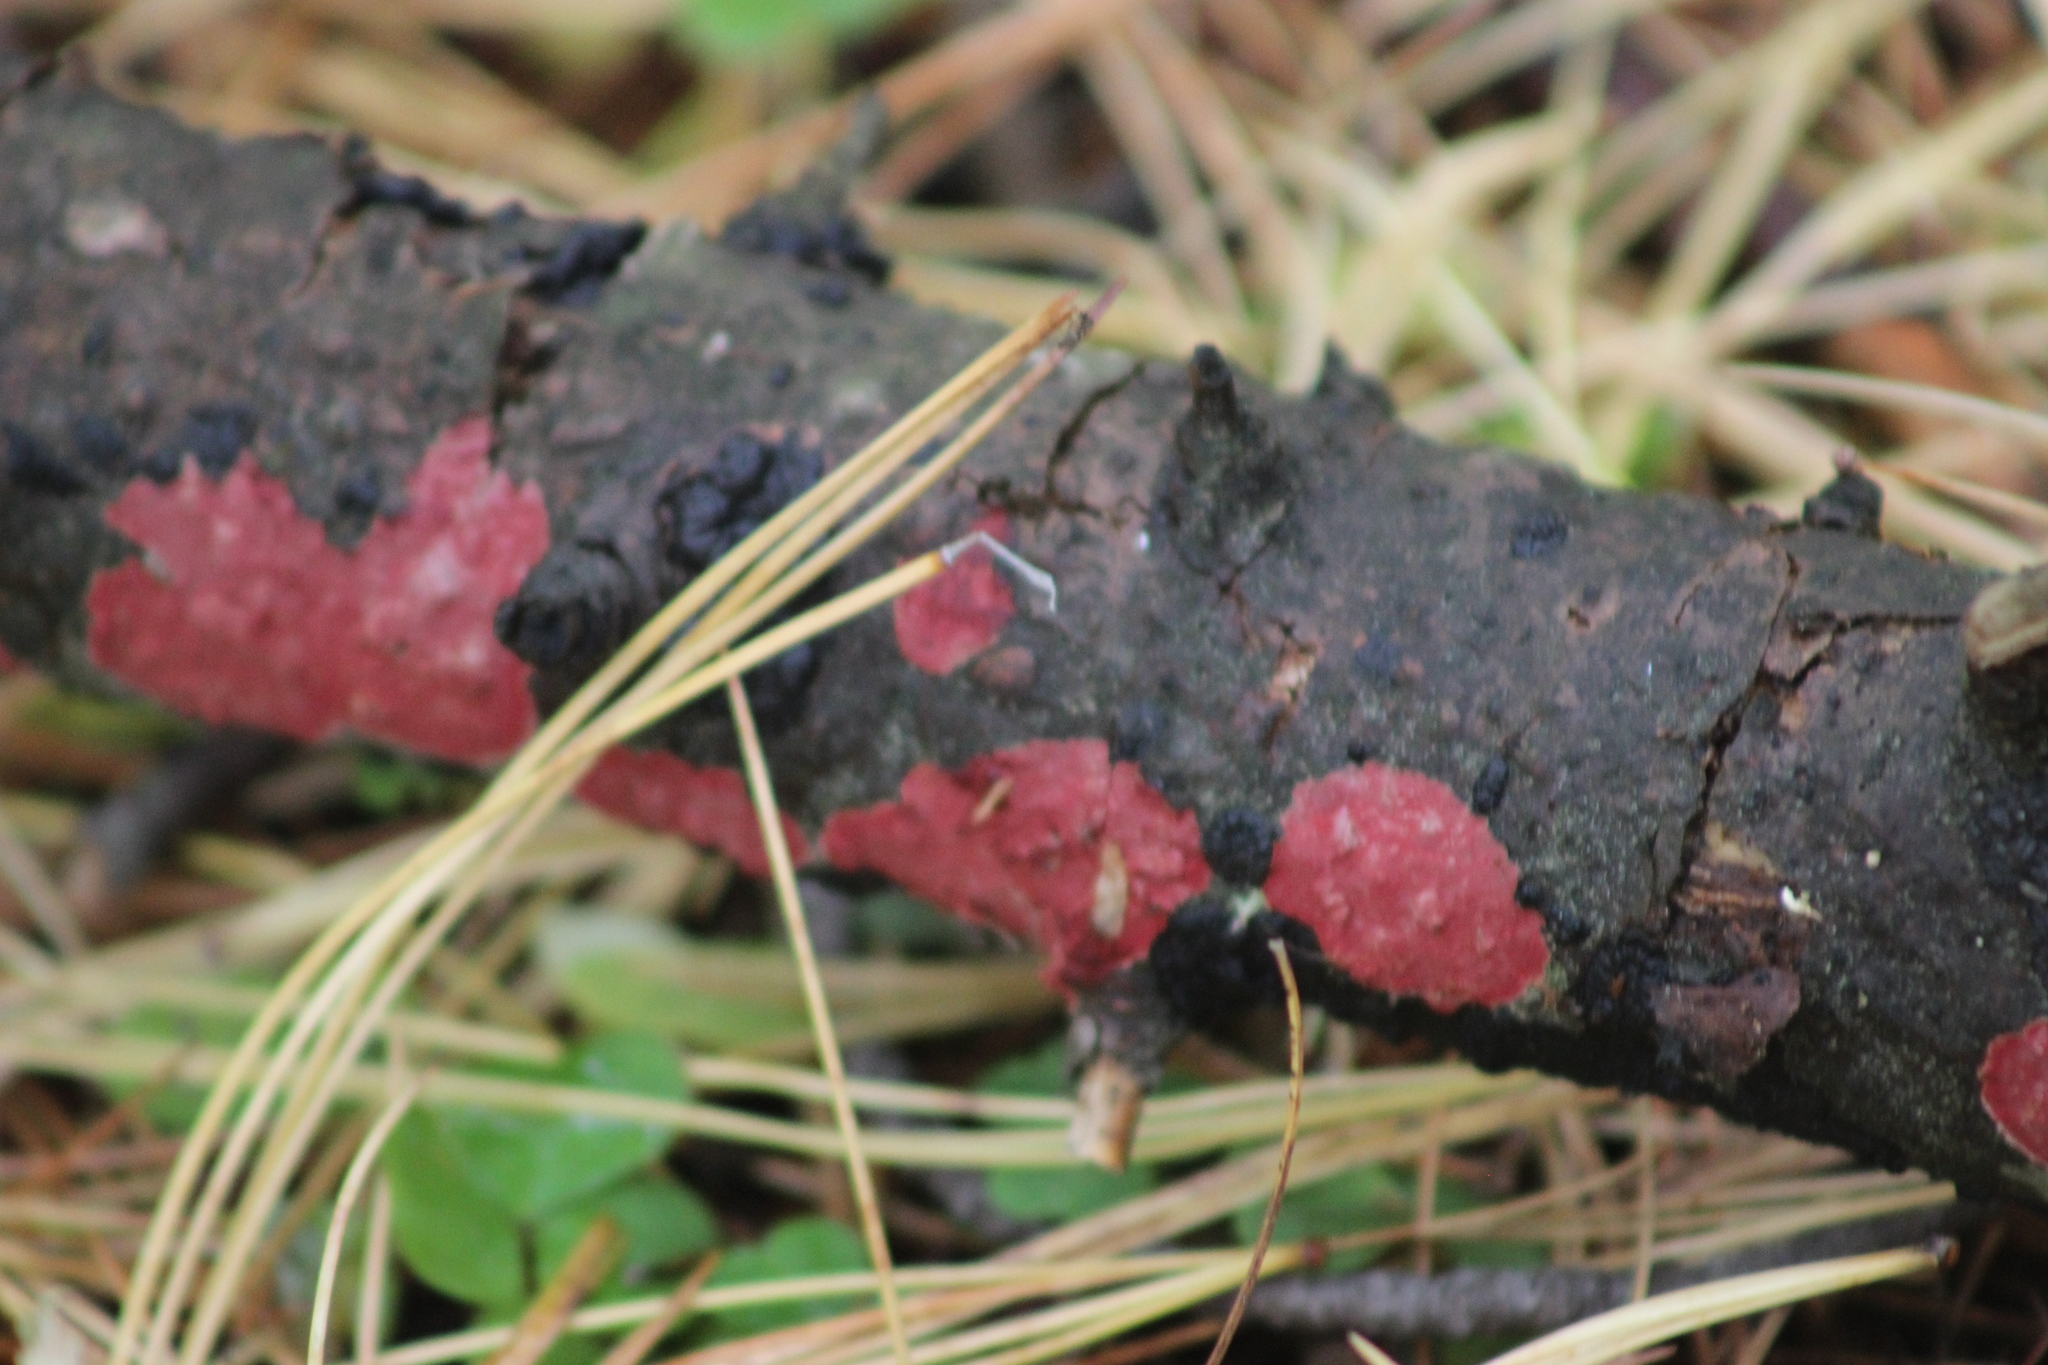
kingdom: Fungi
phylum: Basidiomycota
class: Agaricomycetes
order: Hymenochaetales
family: Hymenochaetaceae
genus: Hymenochaete
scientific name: Hymenochaete cruenta
